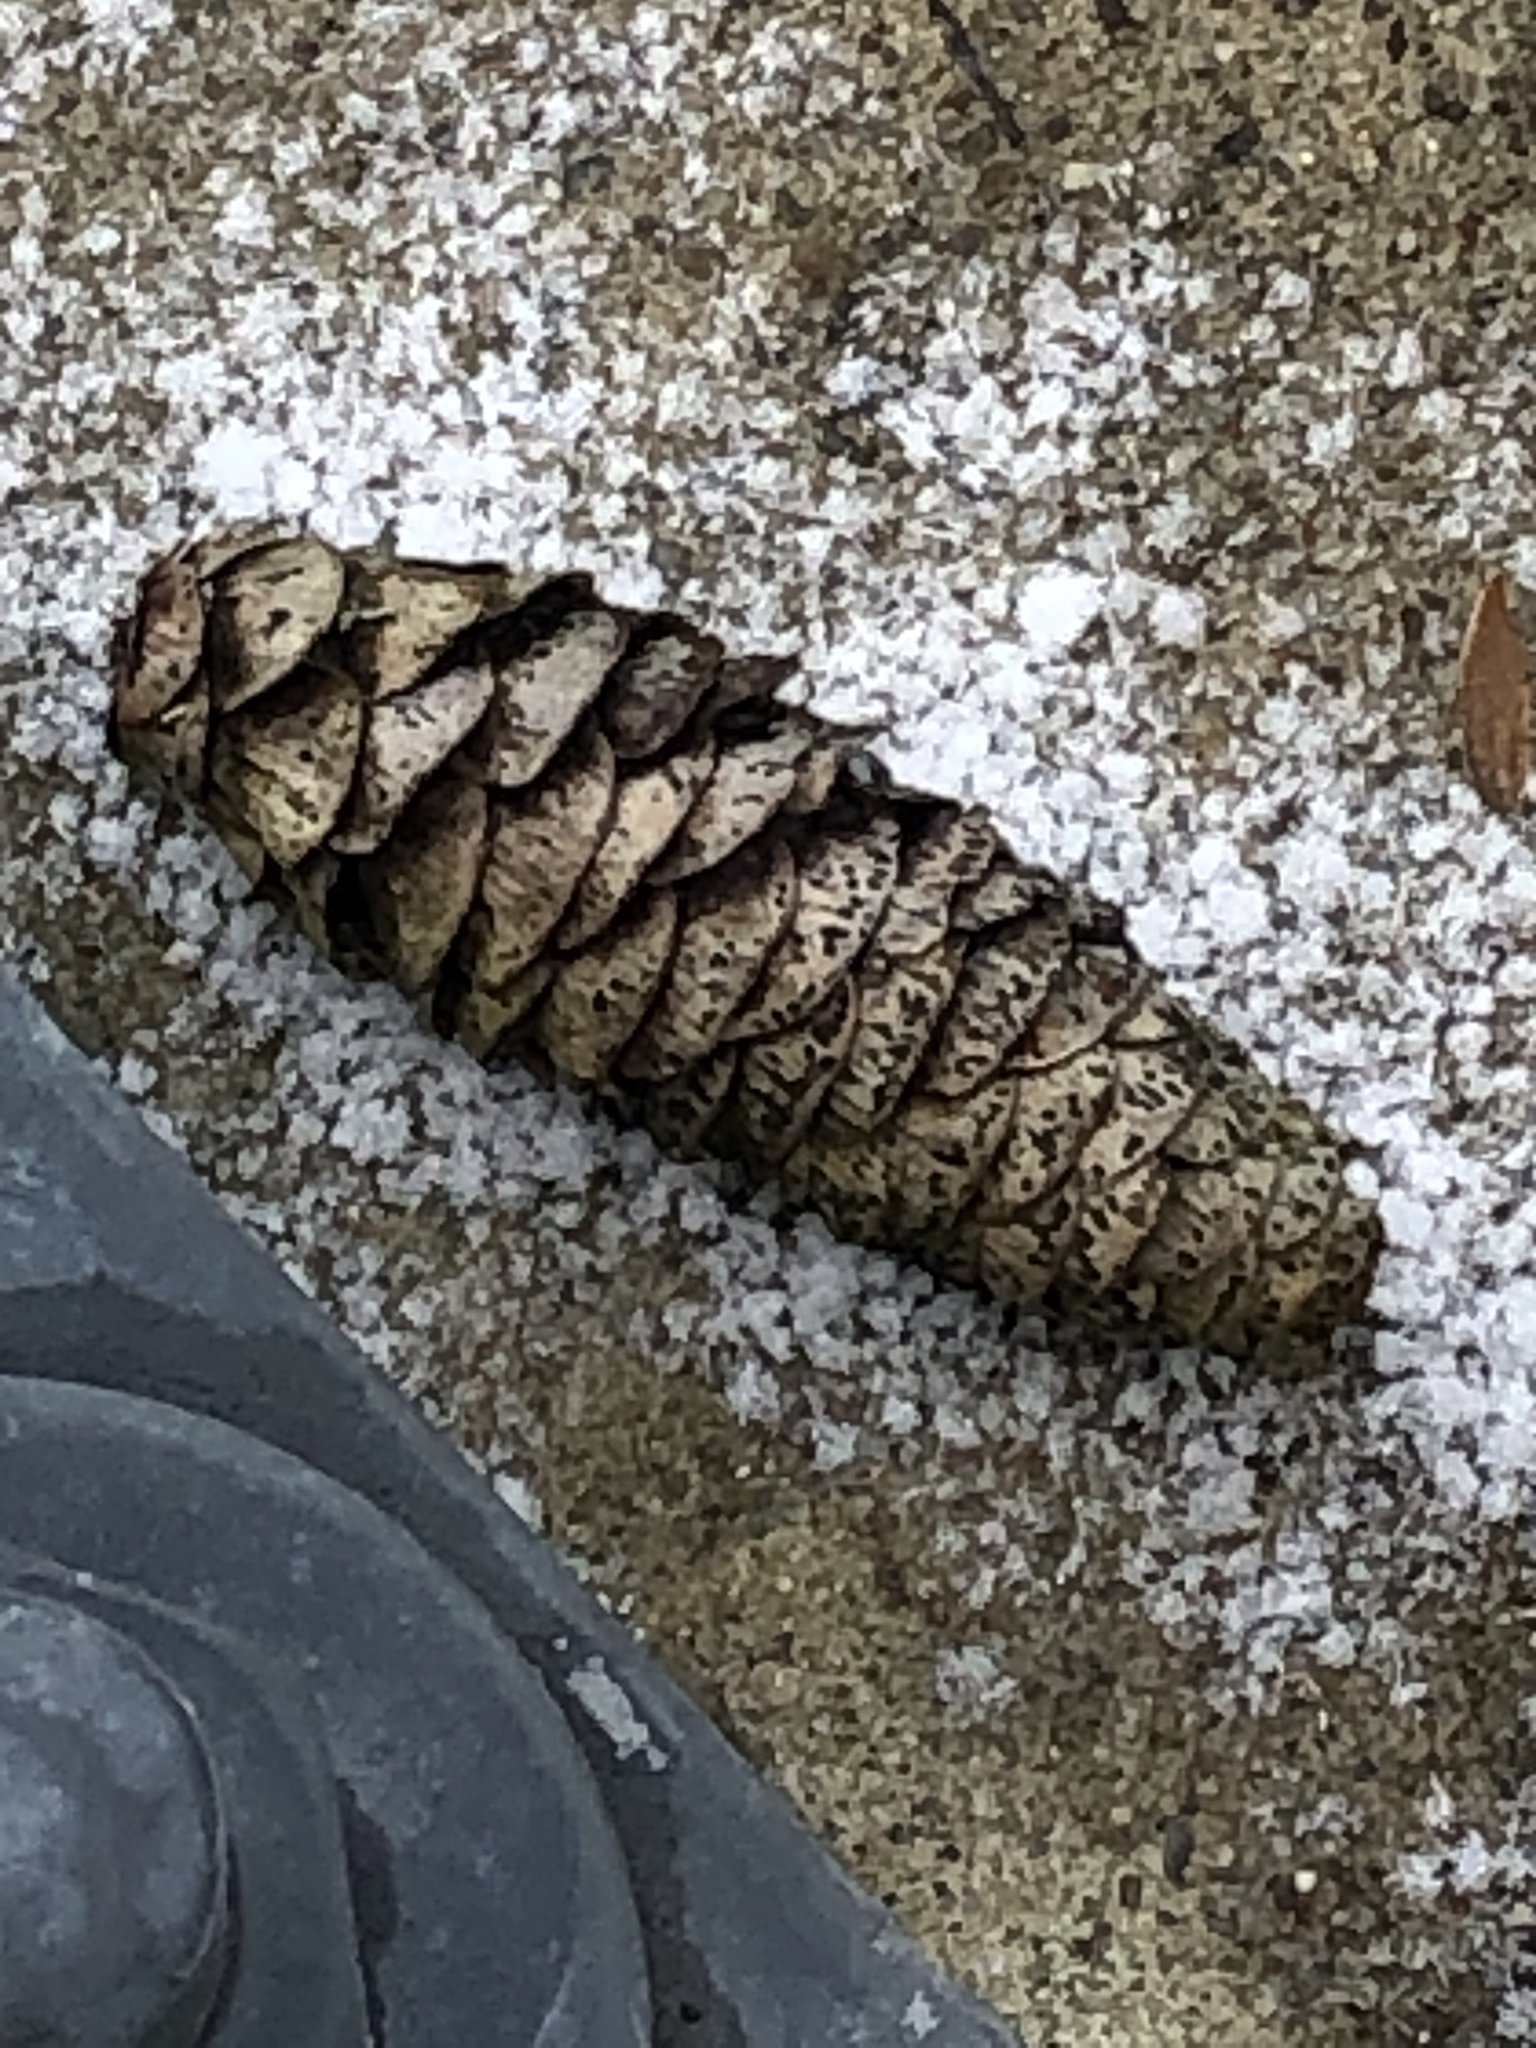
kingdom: Plantae
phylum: Tracheophyta
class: Pinopsida
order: Pinales
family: Pinaceae
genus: Picea
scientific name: Picea glauca
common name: White spruce
